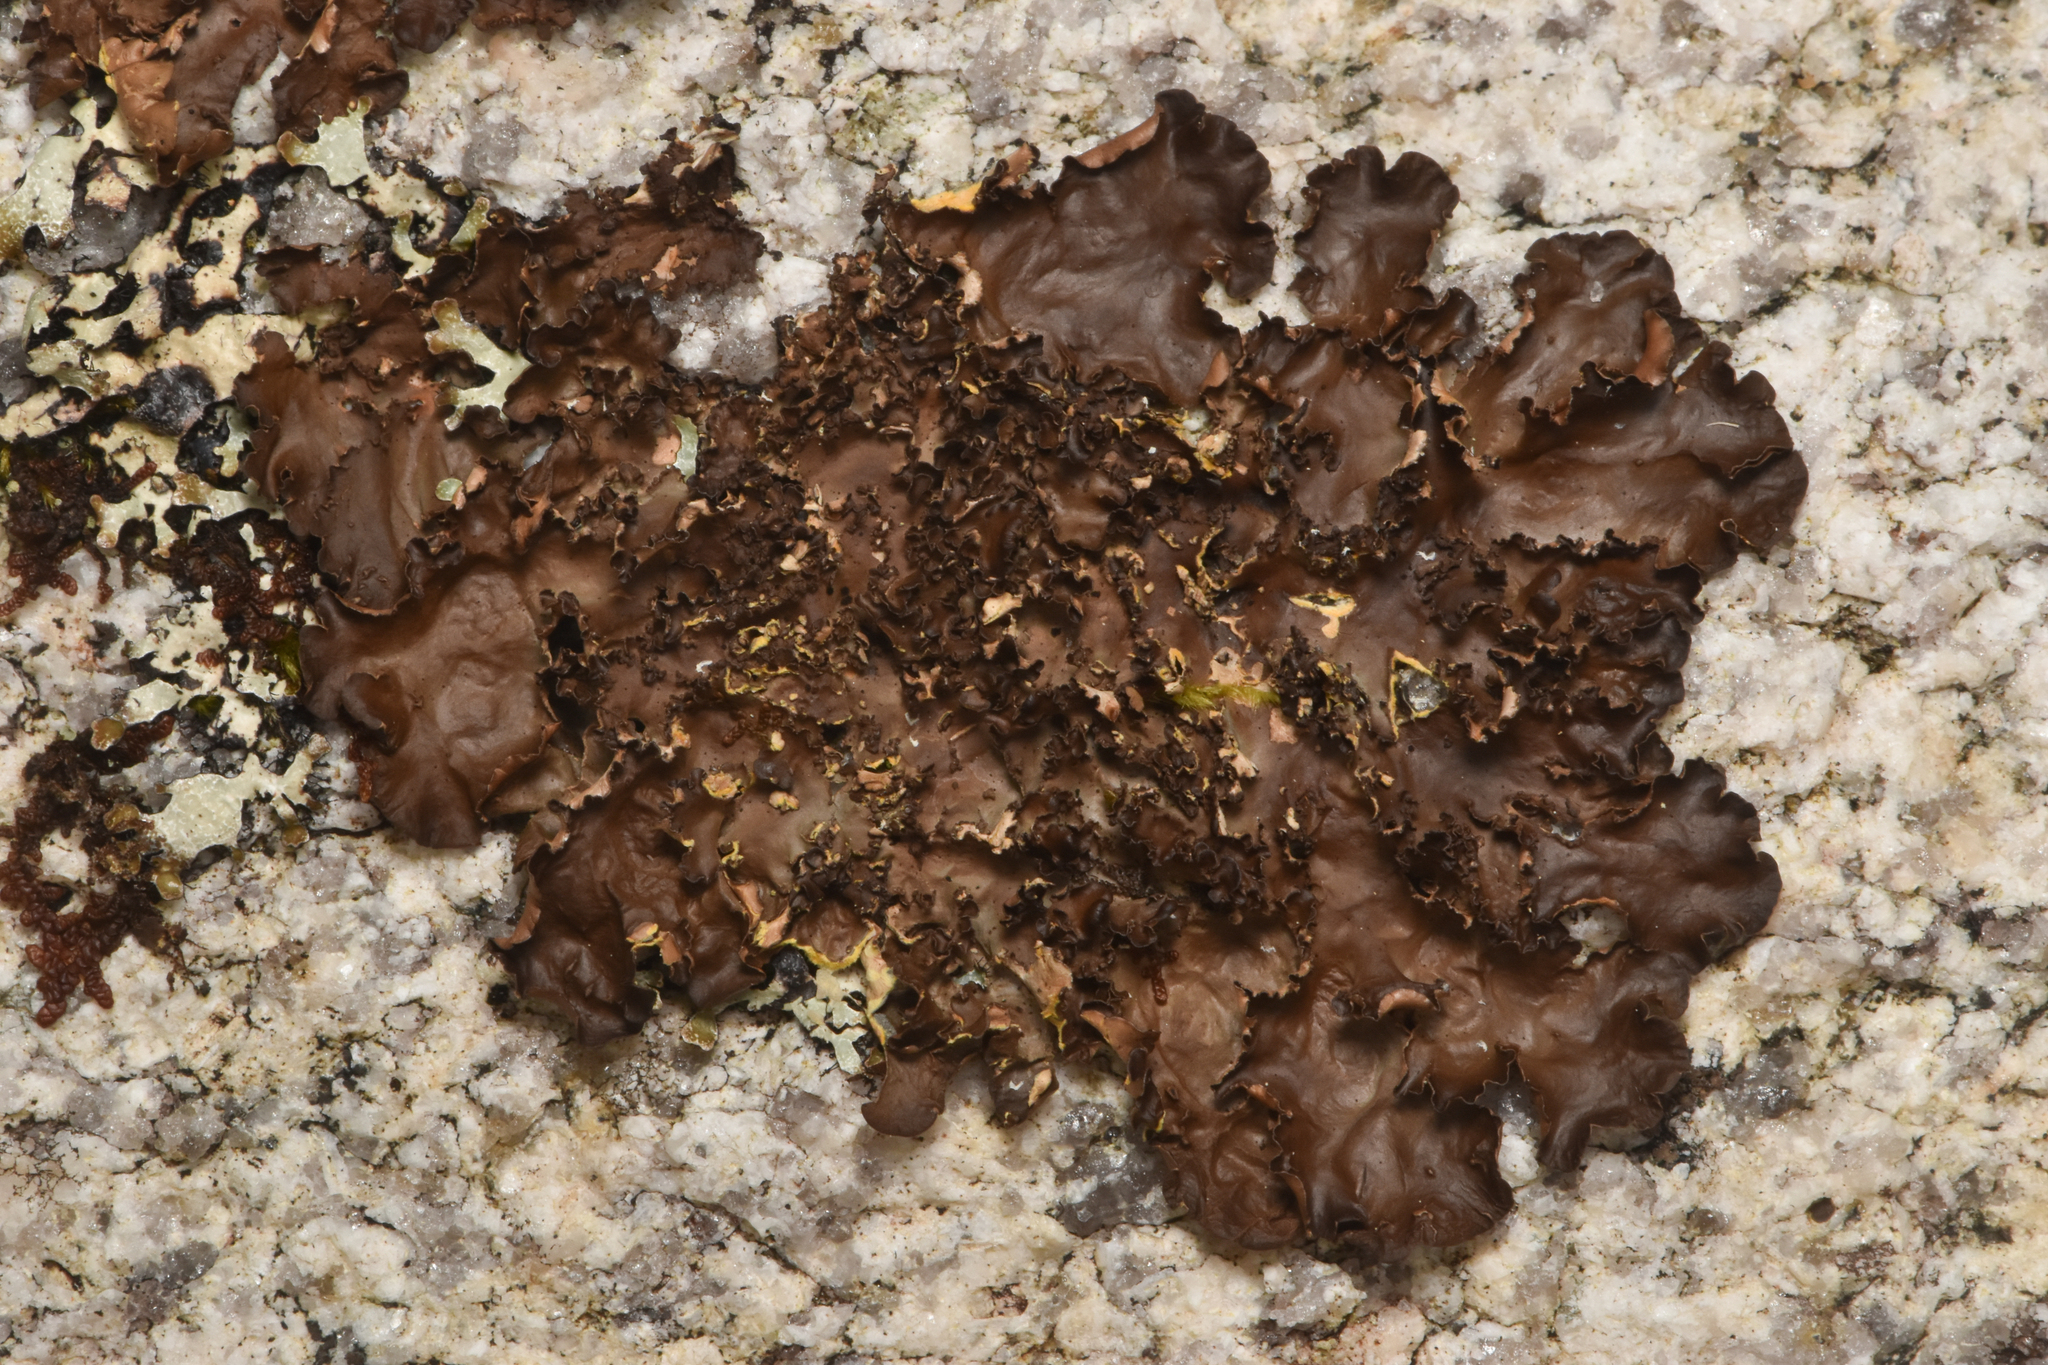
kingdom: Fungi
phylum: Ascomycota
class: Lecanoromycetes
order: Peltigerales
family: Nephromataceae
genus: Nephroma
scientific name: Nephroma laevigatum
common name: Mustard kidney lichen
